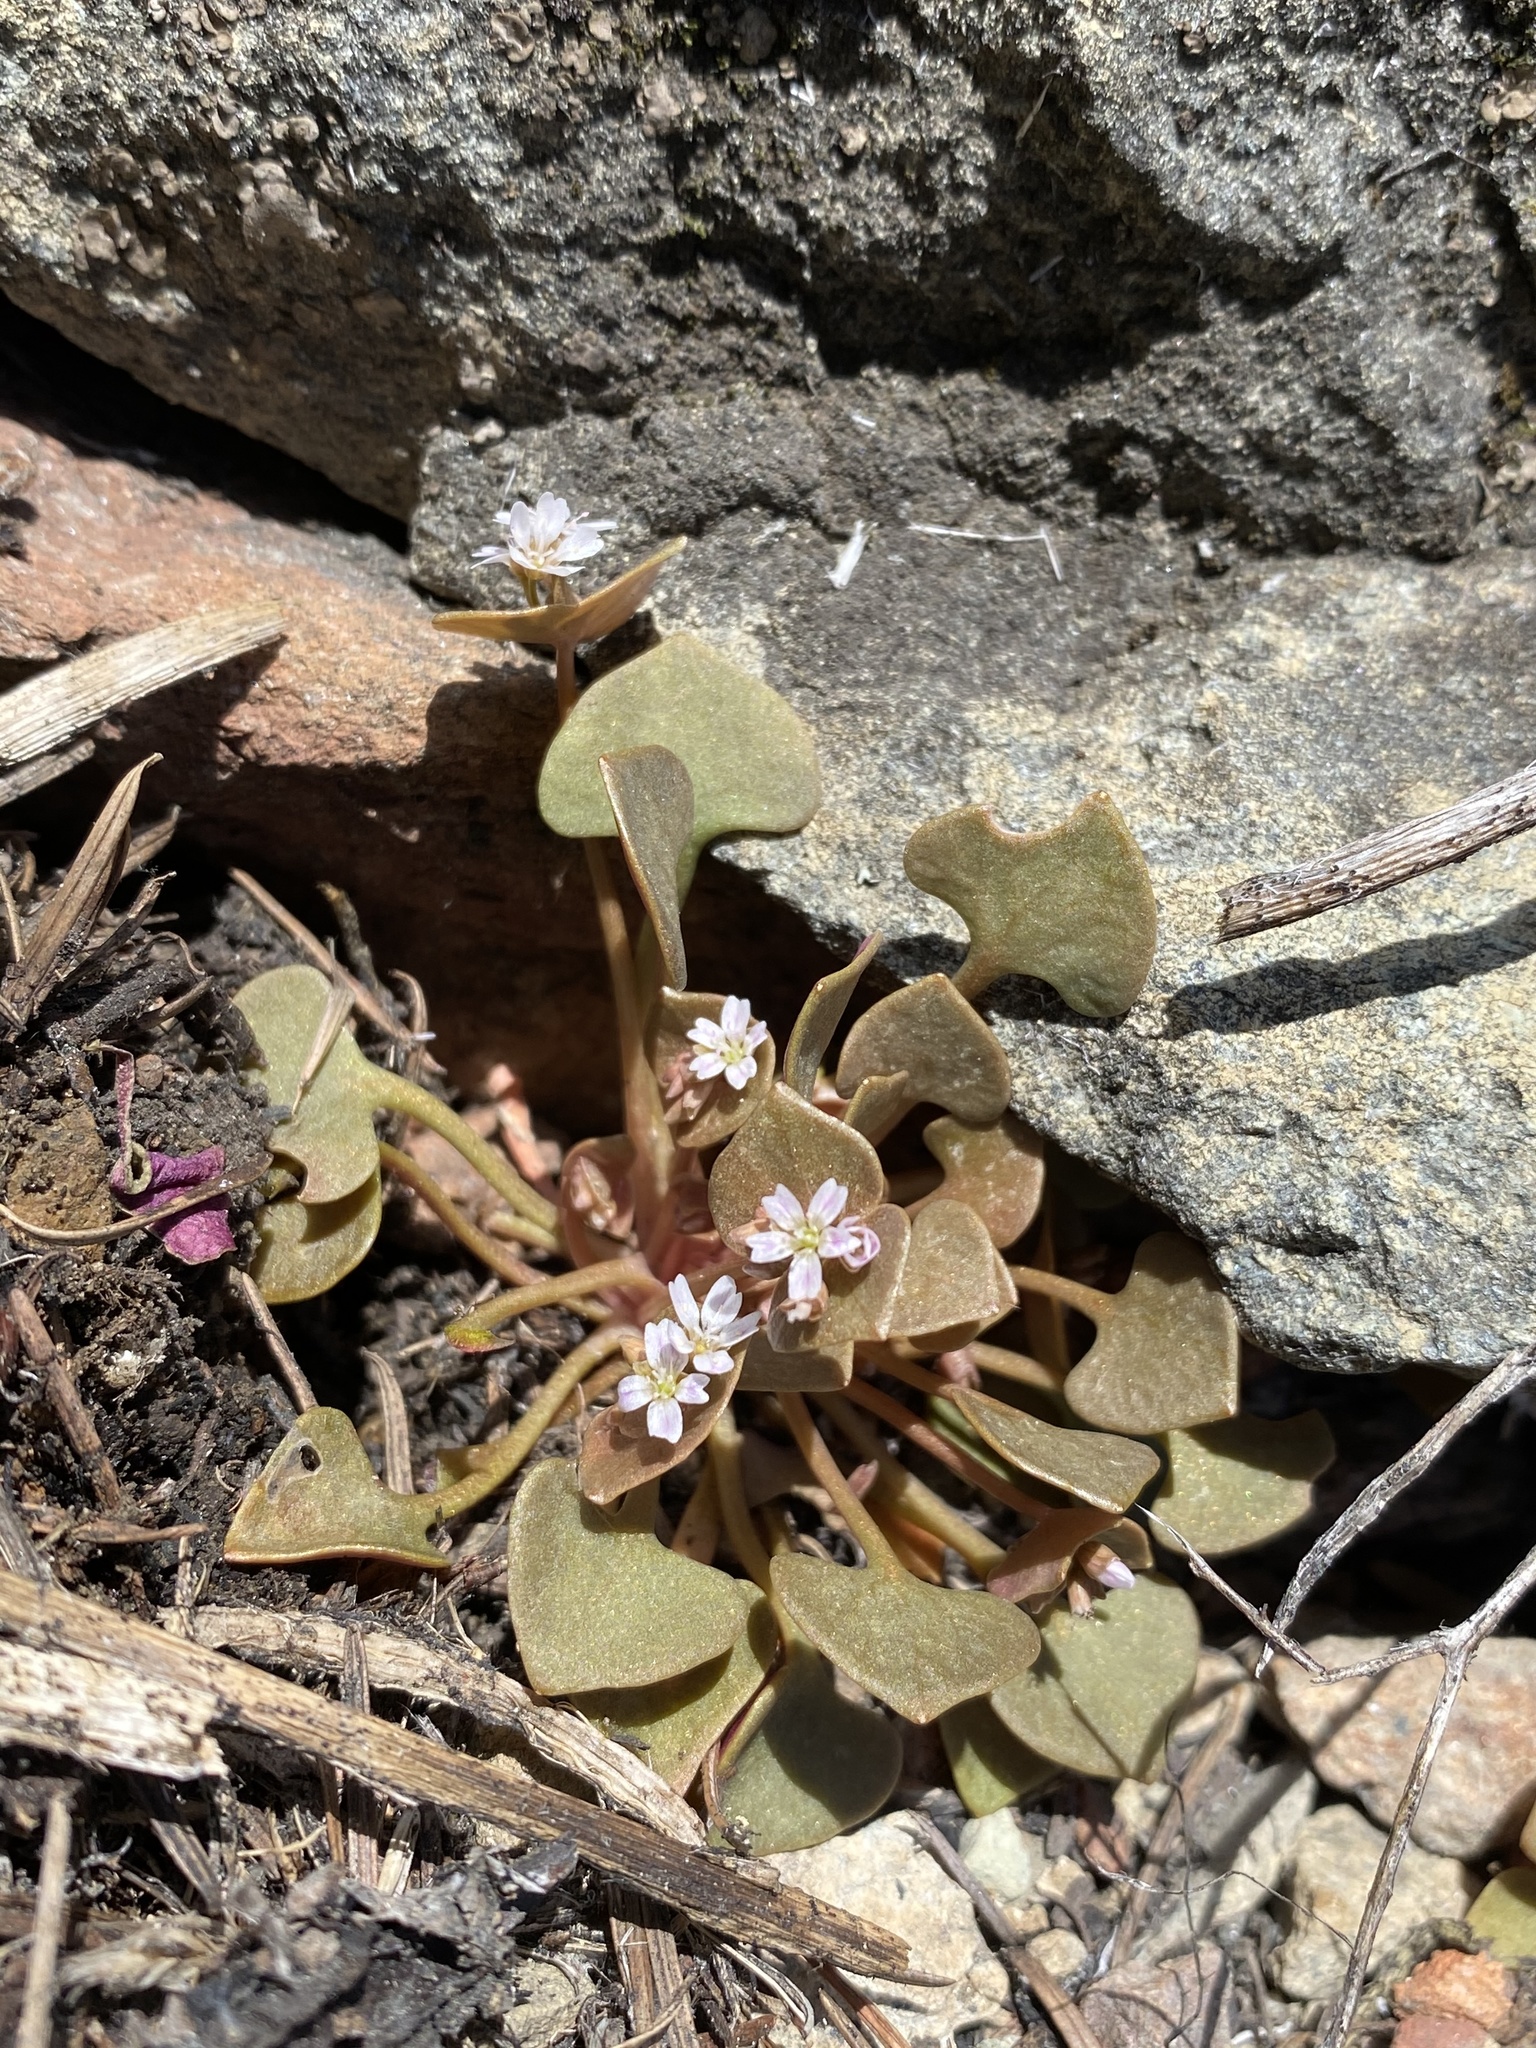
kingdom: Plantae
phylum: Tracheophyta
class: Magnoliopsida
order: Caryophyllales
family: Montiaceae
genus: Claytonia
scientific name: Claytonia rubra
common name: Erubescent miner's-lettuce
